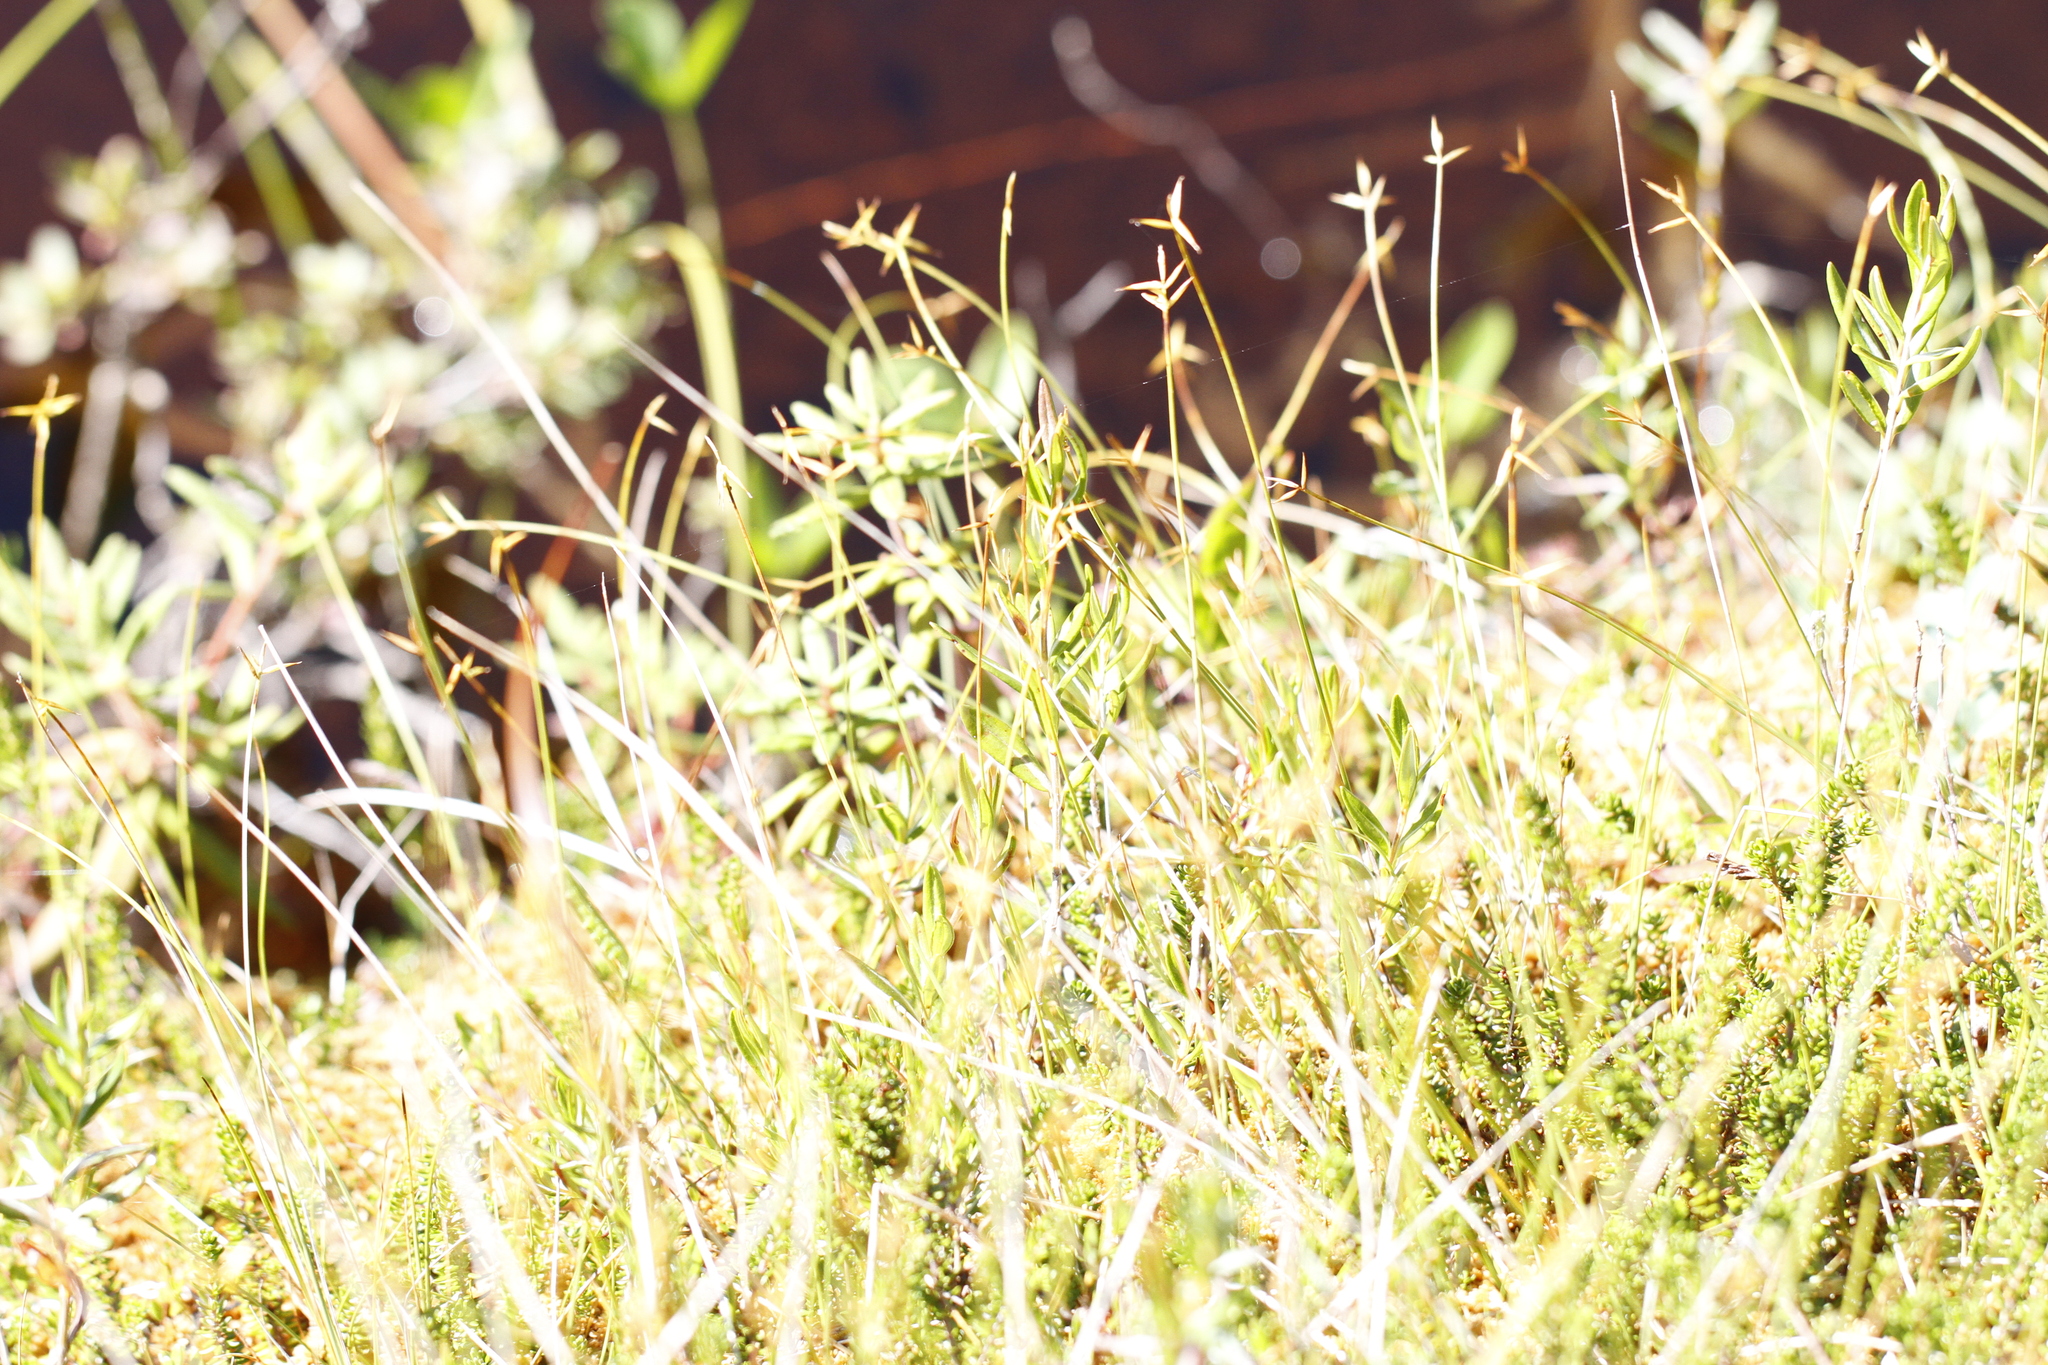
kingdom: Plantae
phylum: Tracheophyta
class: Liliopsida
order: Poales
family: Cyperaceae
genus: Carex
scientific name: Carex pauciflora
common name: Few-flowered sedge
